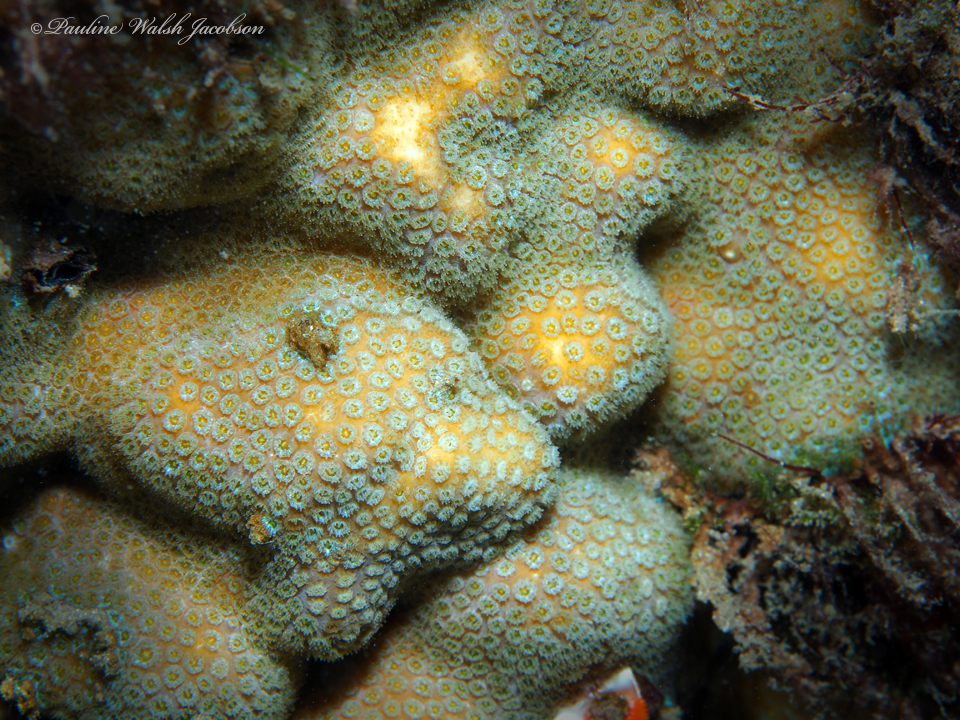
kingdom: Animalia
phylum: Cnidaria
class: Anthozoa
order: Scleractinia
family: Pocilloporidae
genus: Madracis
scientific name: Madracis decactis
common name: Ten-ray star coral
